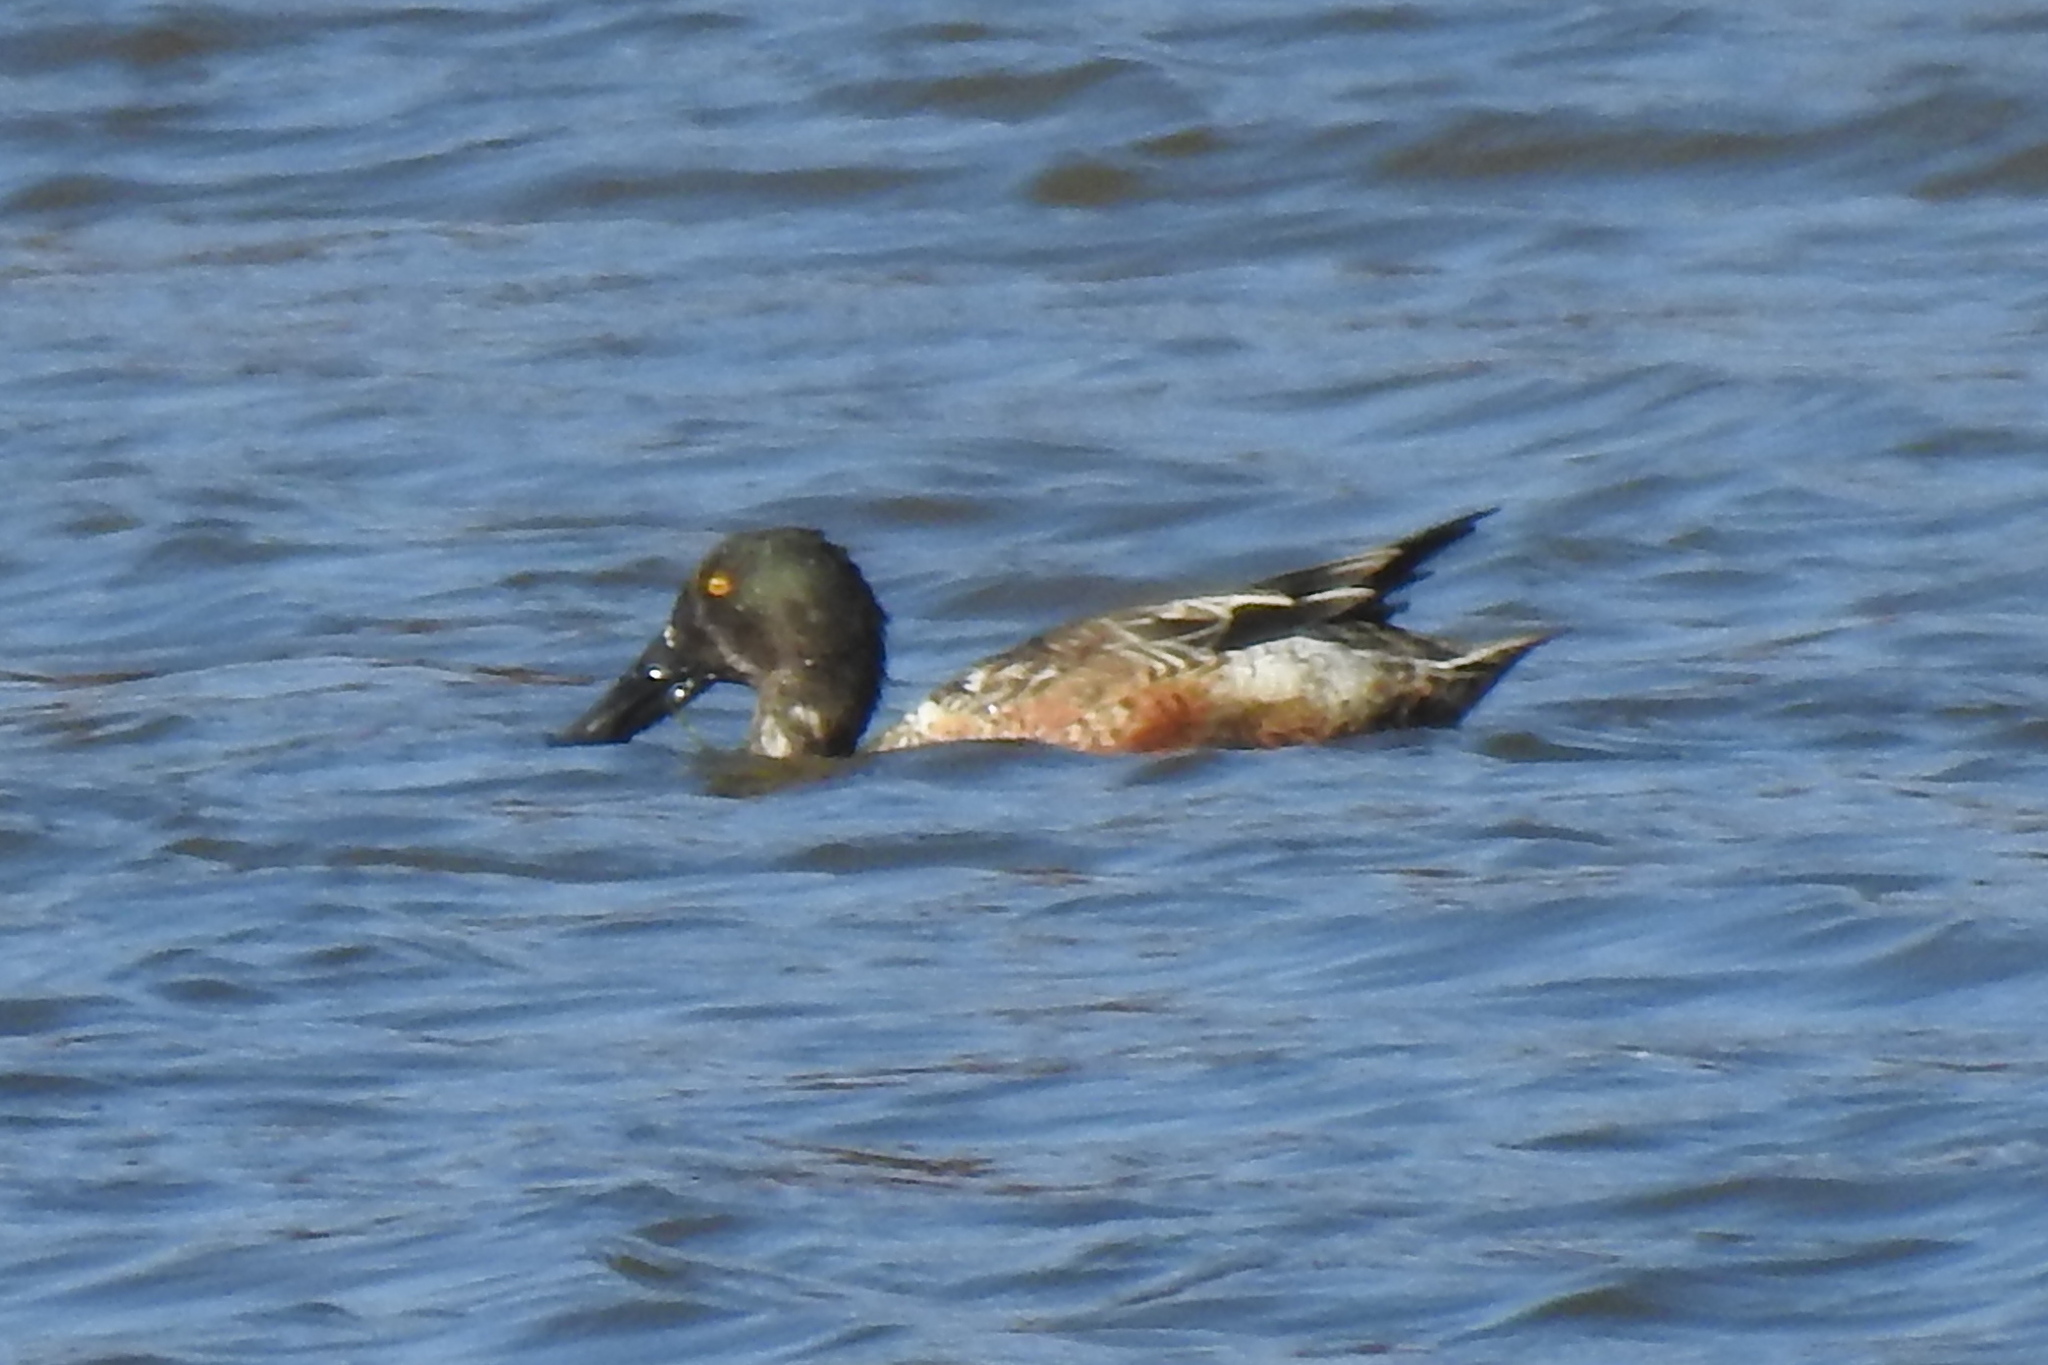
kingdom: Animalia
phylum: Chordata
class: Aves
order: Anseriformes
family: Anatidae
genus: Spatula
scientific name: Spatula clypeata
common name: Northern shoveler
